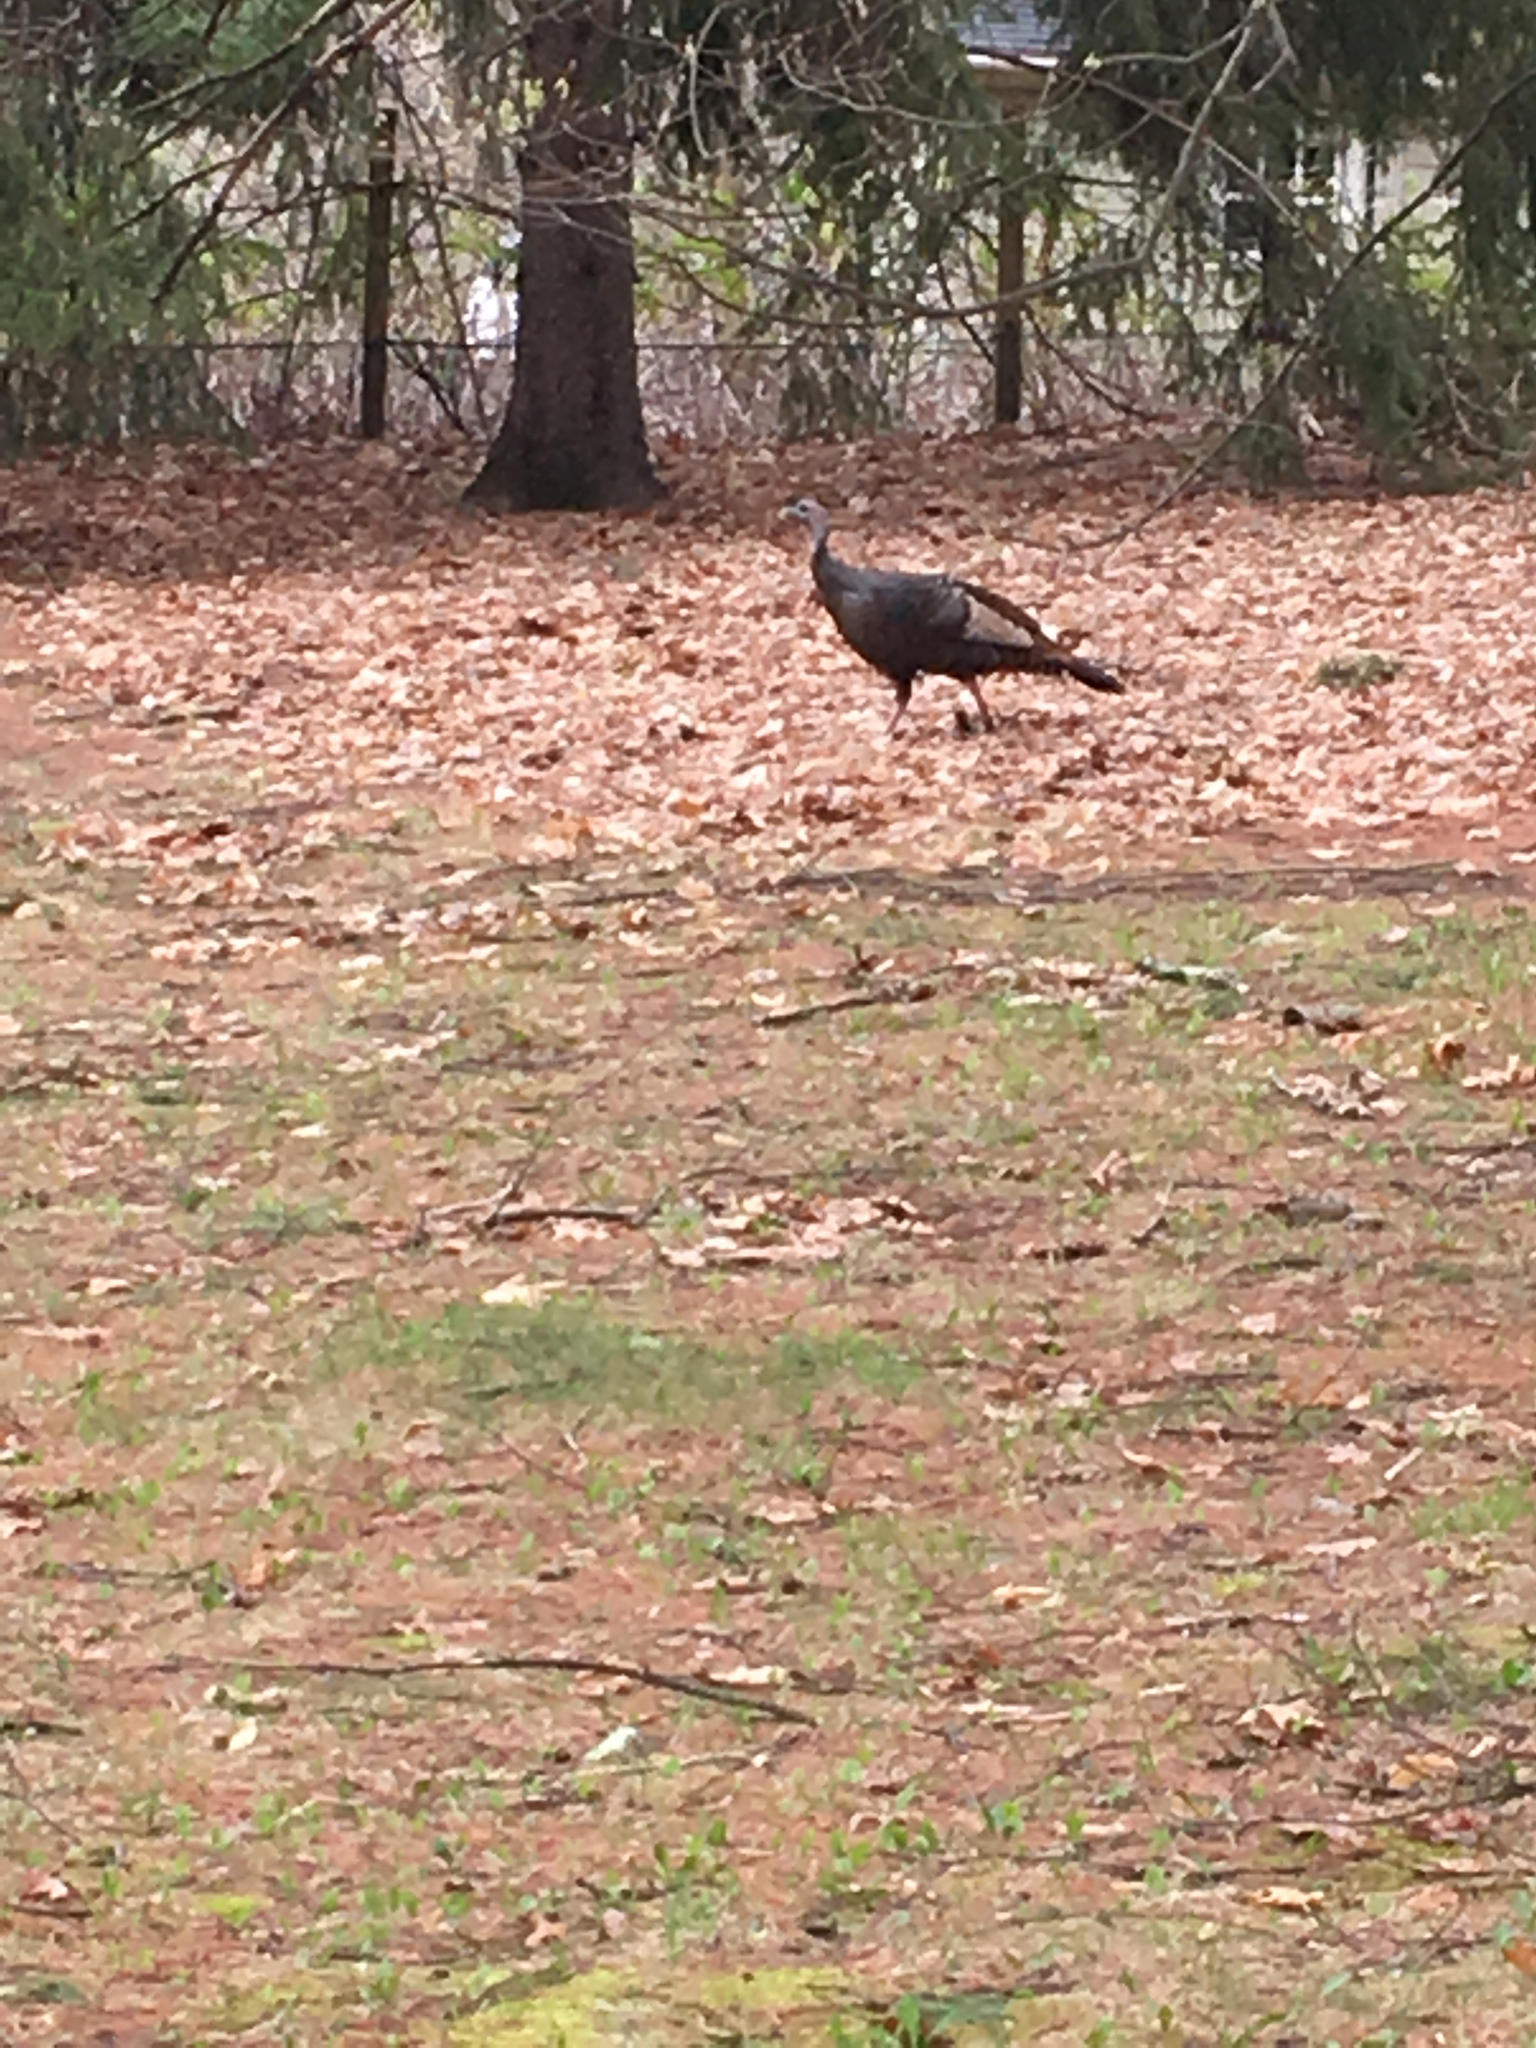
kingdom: Animalia
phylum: Chordata
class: Aves
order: Galliformes
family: Phasianidae
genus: Meleagris
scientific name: Meleagris gallopavo
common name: Wild turkey
